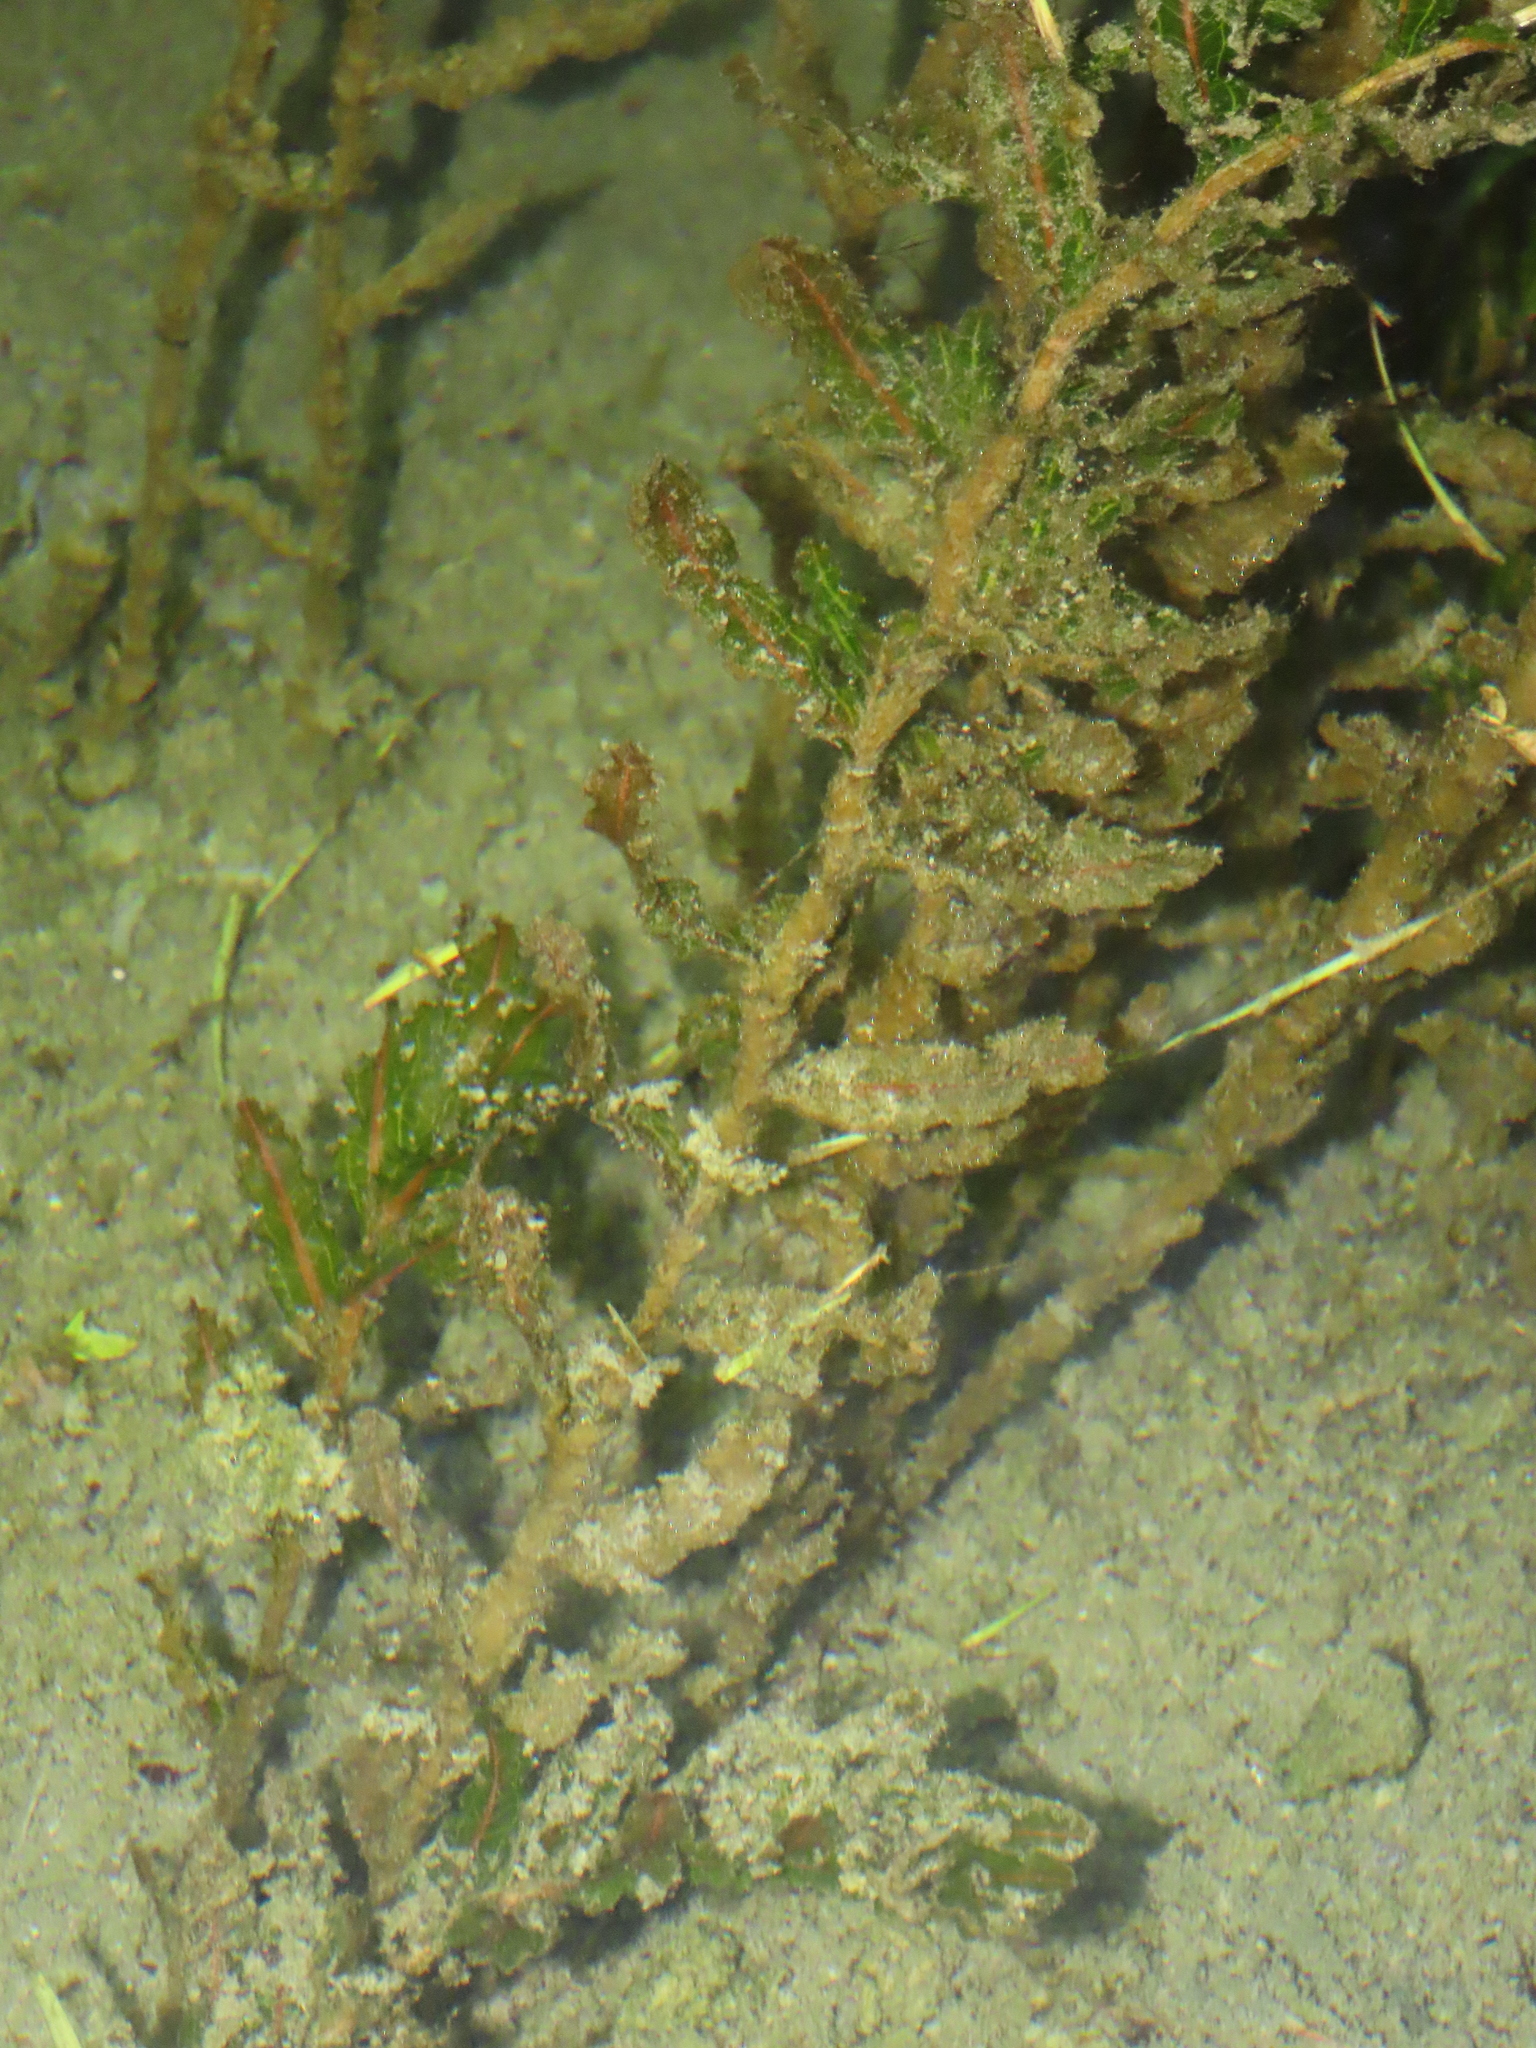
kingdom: Plantae
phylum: Tracheophyta
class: Liliopsida
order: Alismatales
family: Potamogetonaceae
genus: Potamogeton
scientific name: Potamogeton crispus
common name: Curled pondweed
